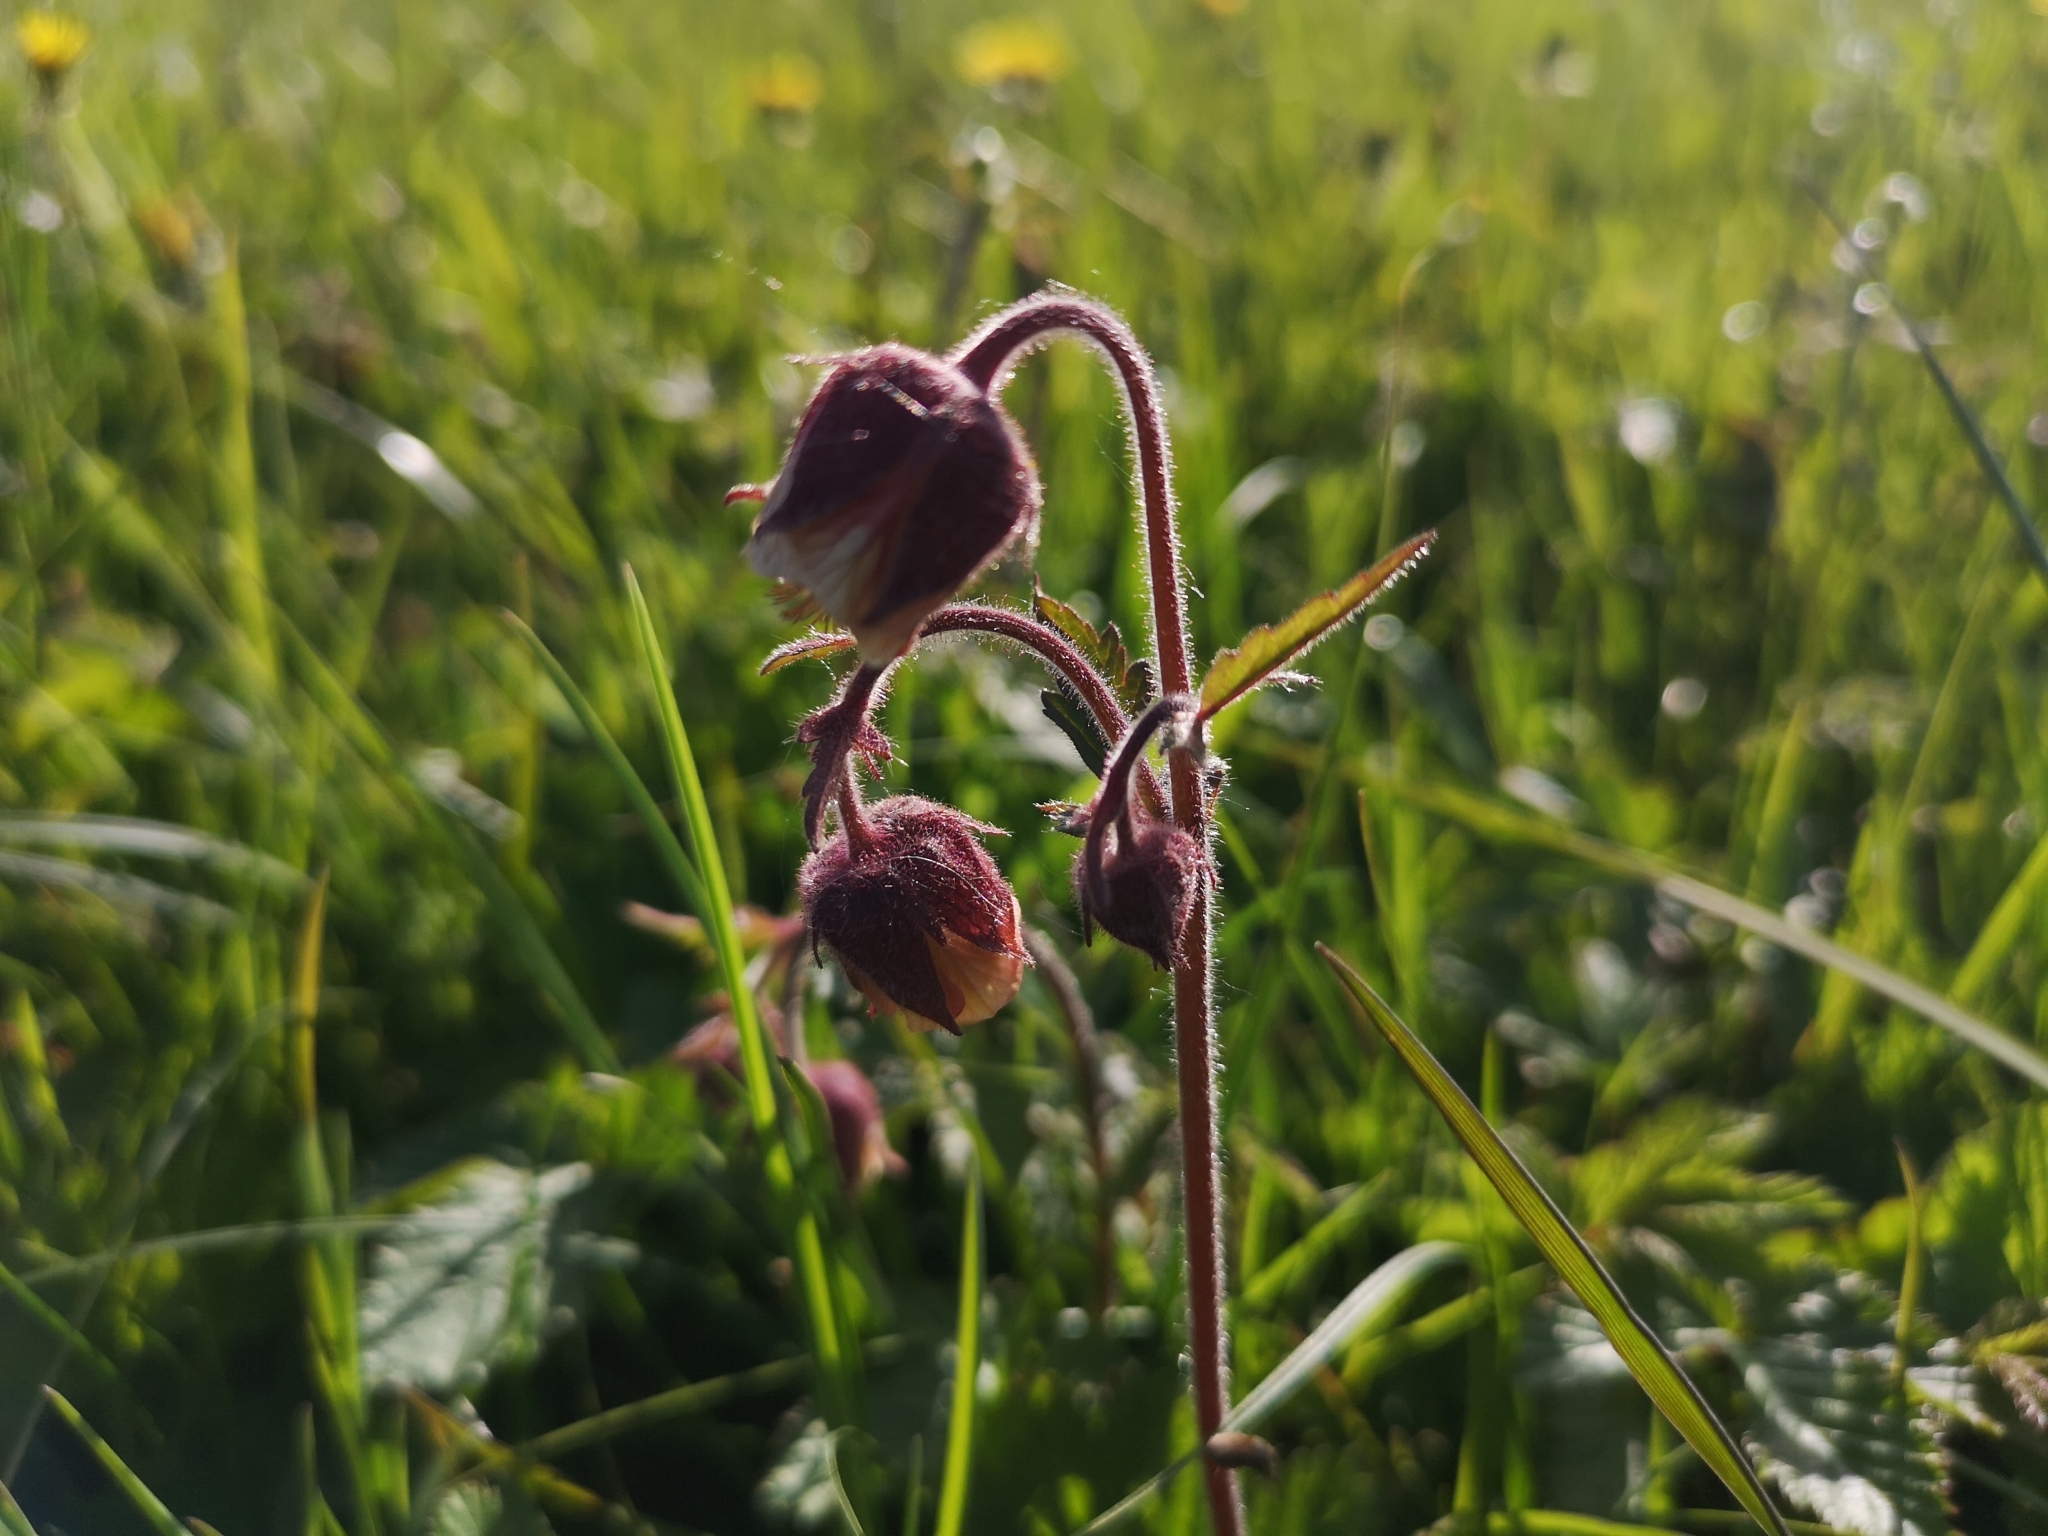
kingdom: Plantae
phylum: Tracheophyta
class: Magnoliopsida
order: Rosales
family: Rosaceae
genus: Geum
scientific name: Geum rivale
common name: Water avens
